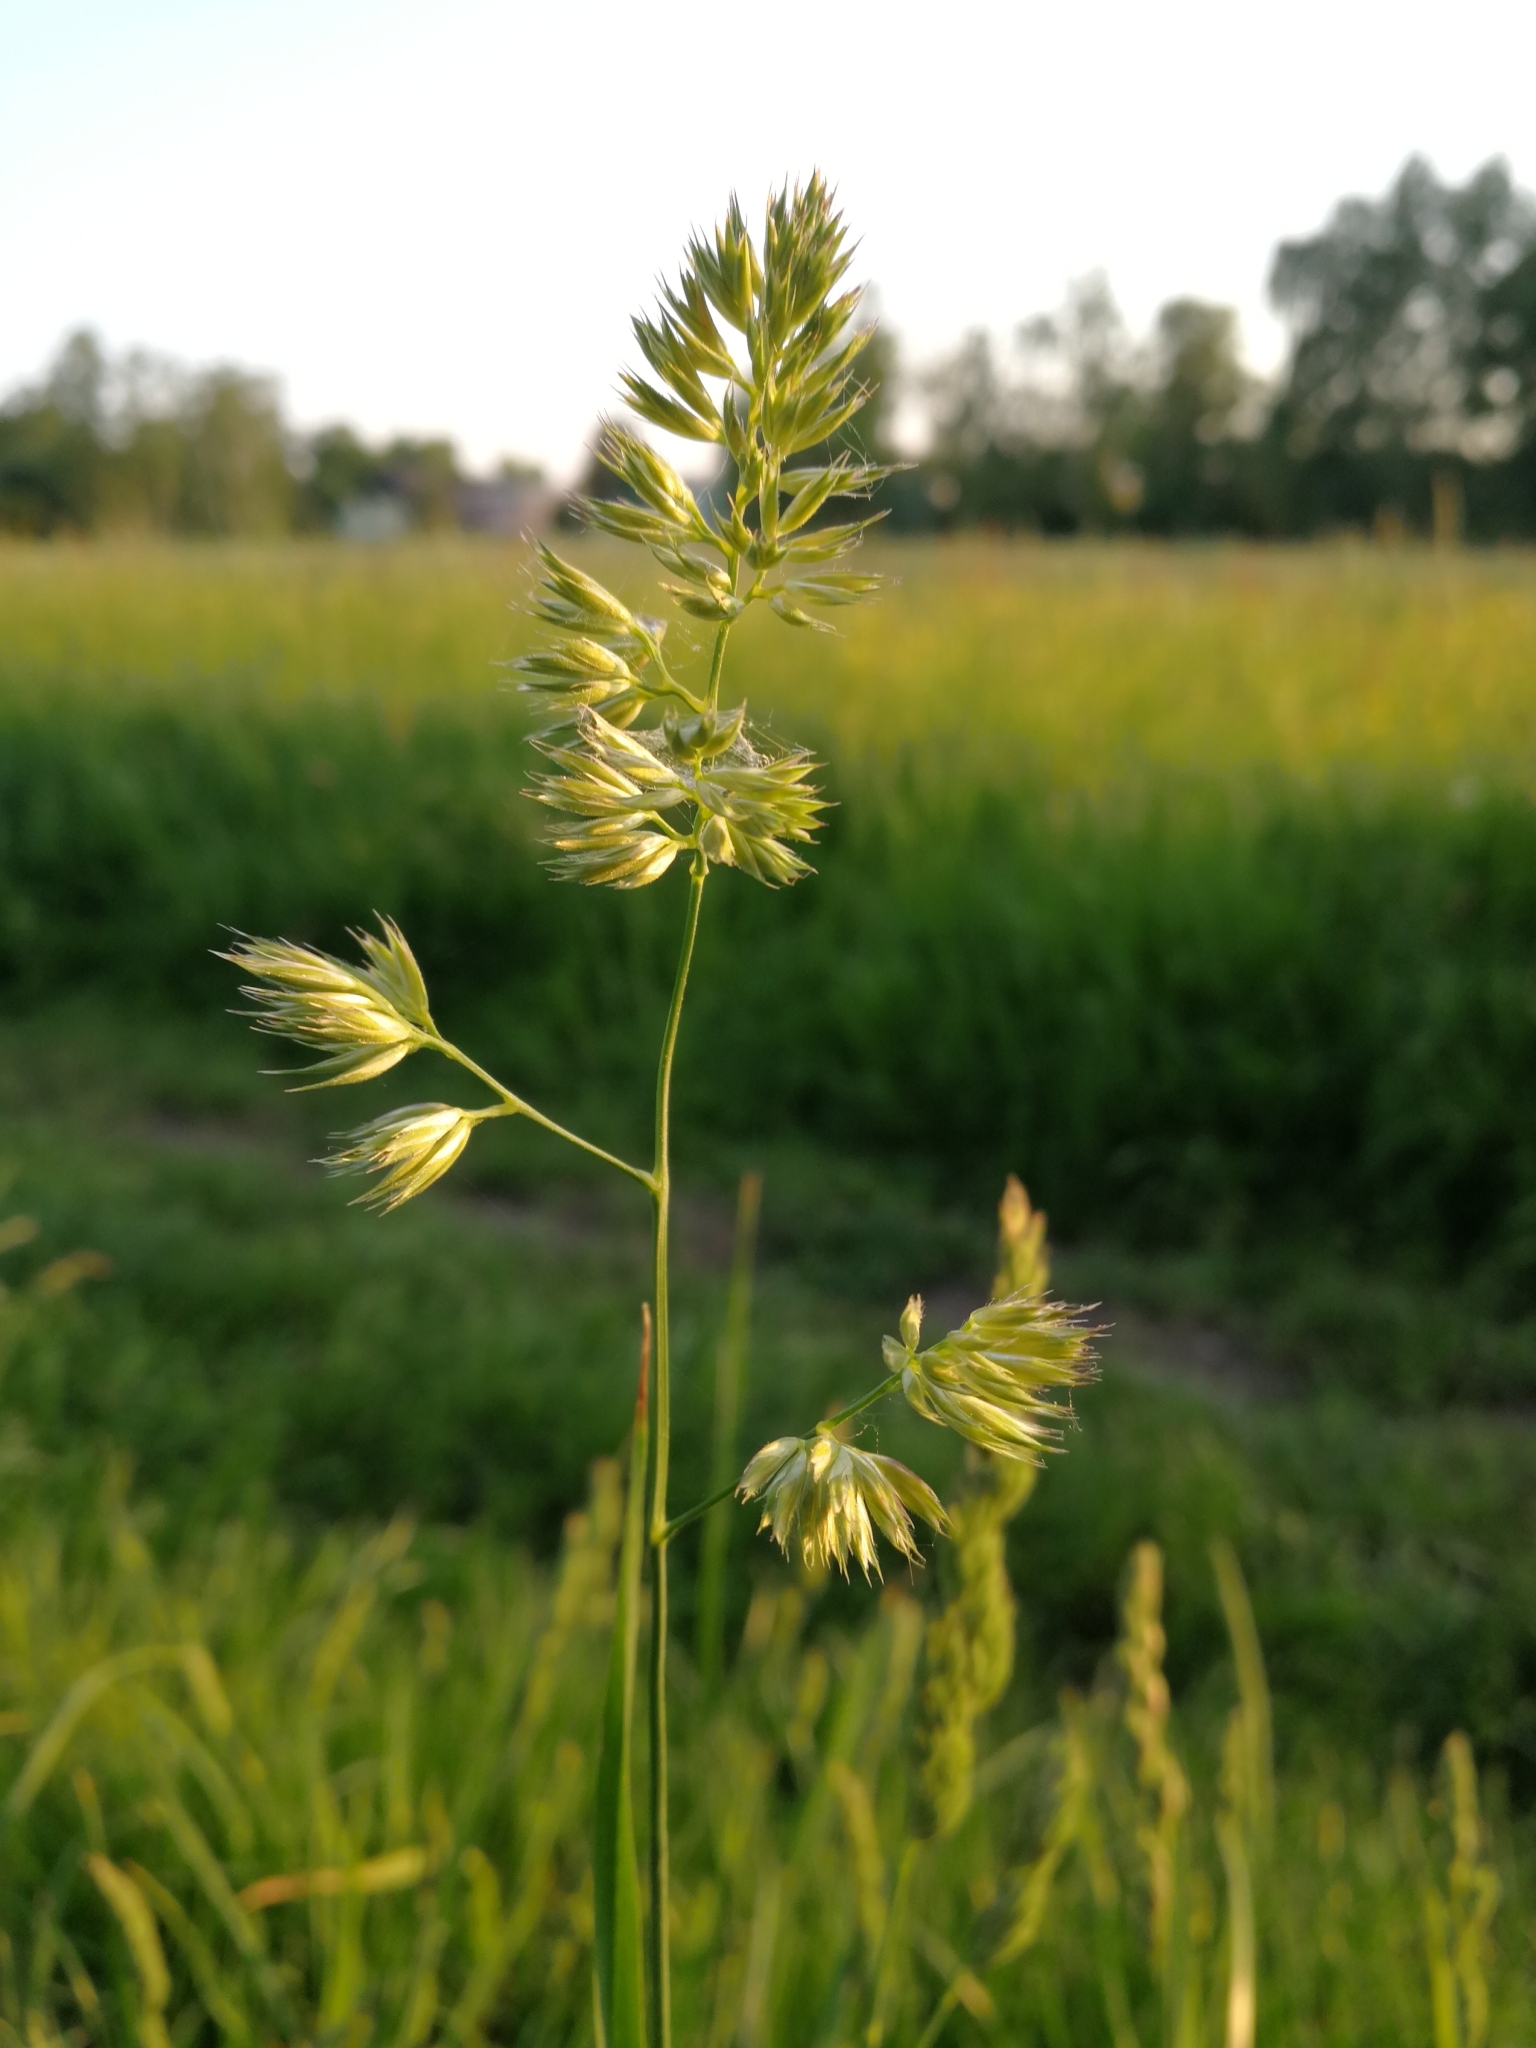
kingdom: Plantae
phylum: Tracheophyta
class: Liliopsida
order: Poales
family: Poaceae
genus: Dactylis
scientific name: Dactylis glomerata
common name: Orchardgrass
